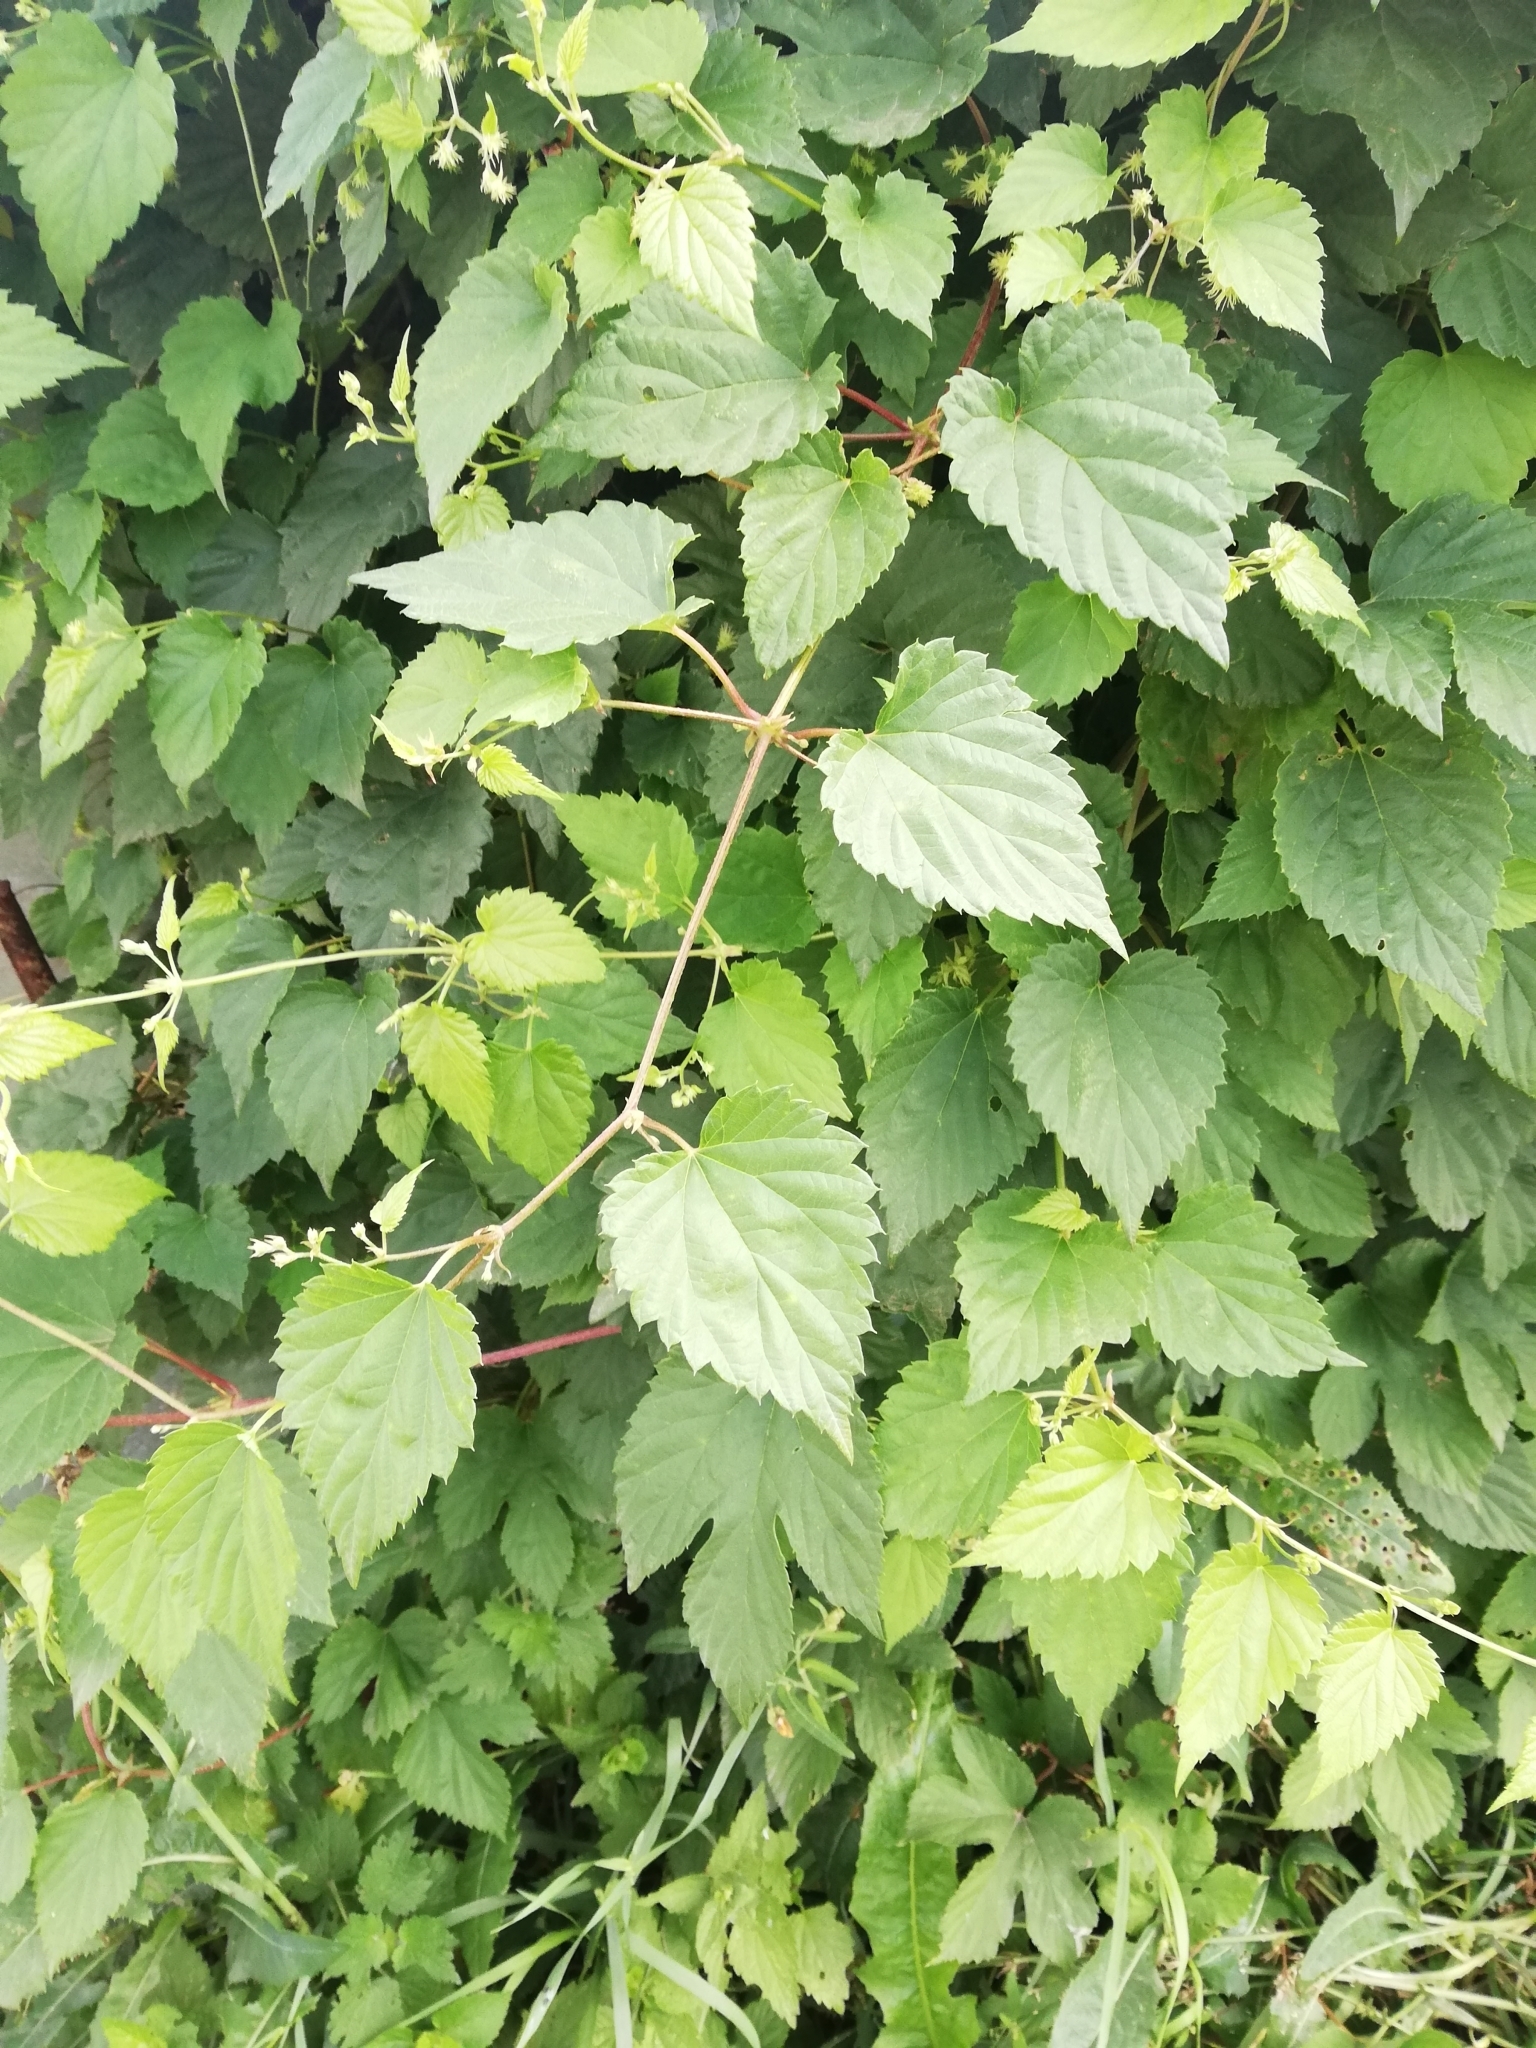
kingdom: Plantae
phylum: Tracheophyta
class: Magnoliopsida
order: Rosales
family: Cannabaceae
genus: Humulus
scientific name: Humulus lupulus
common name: Hop
